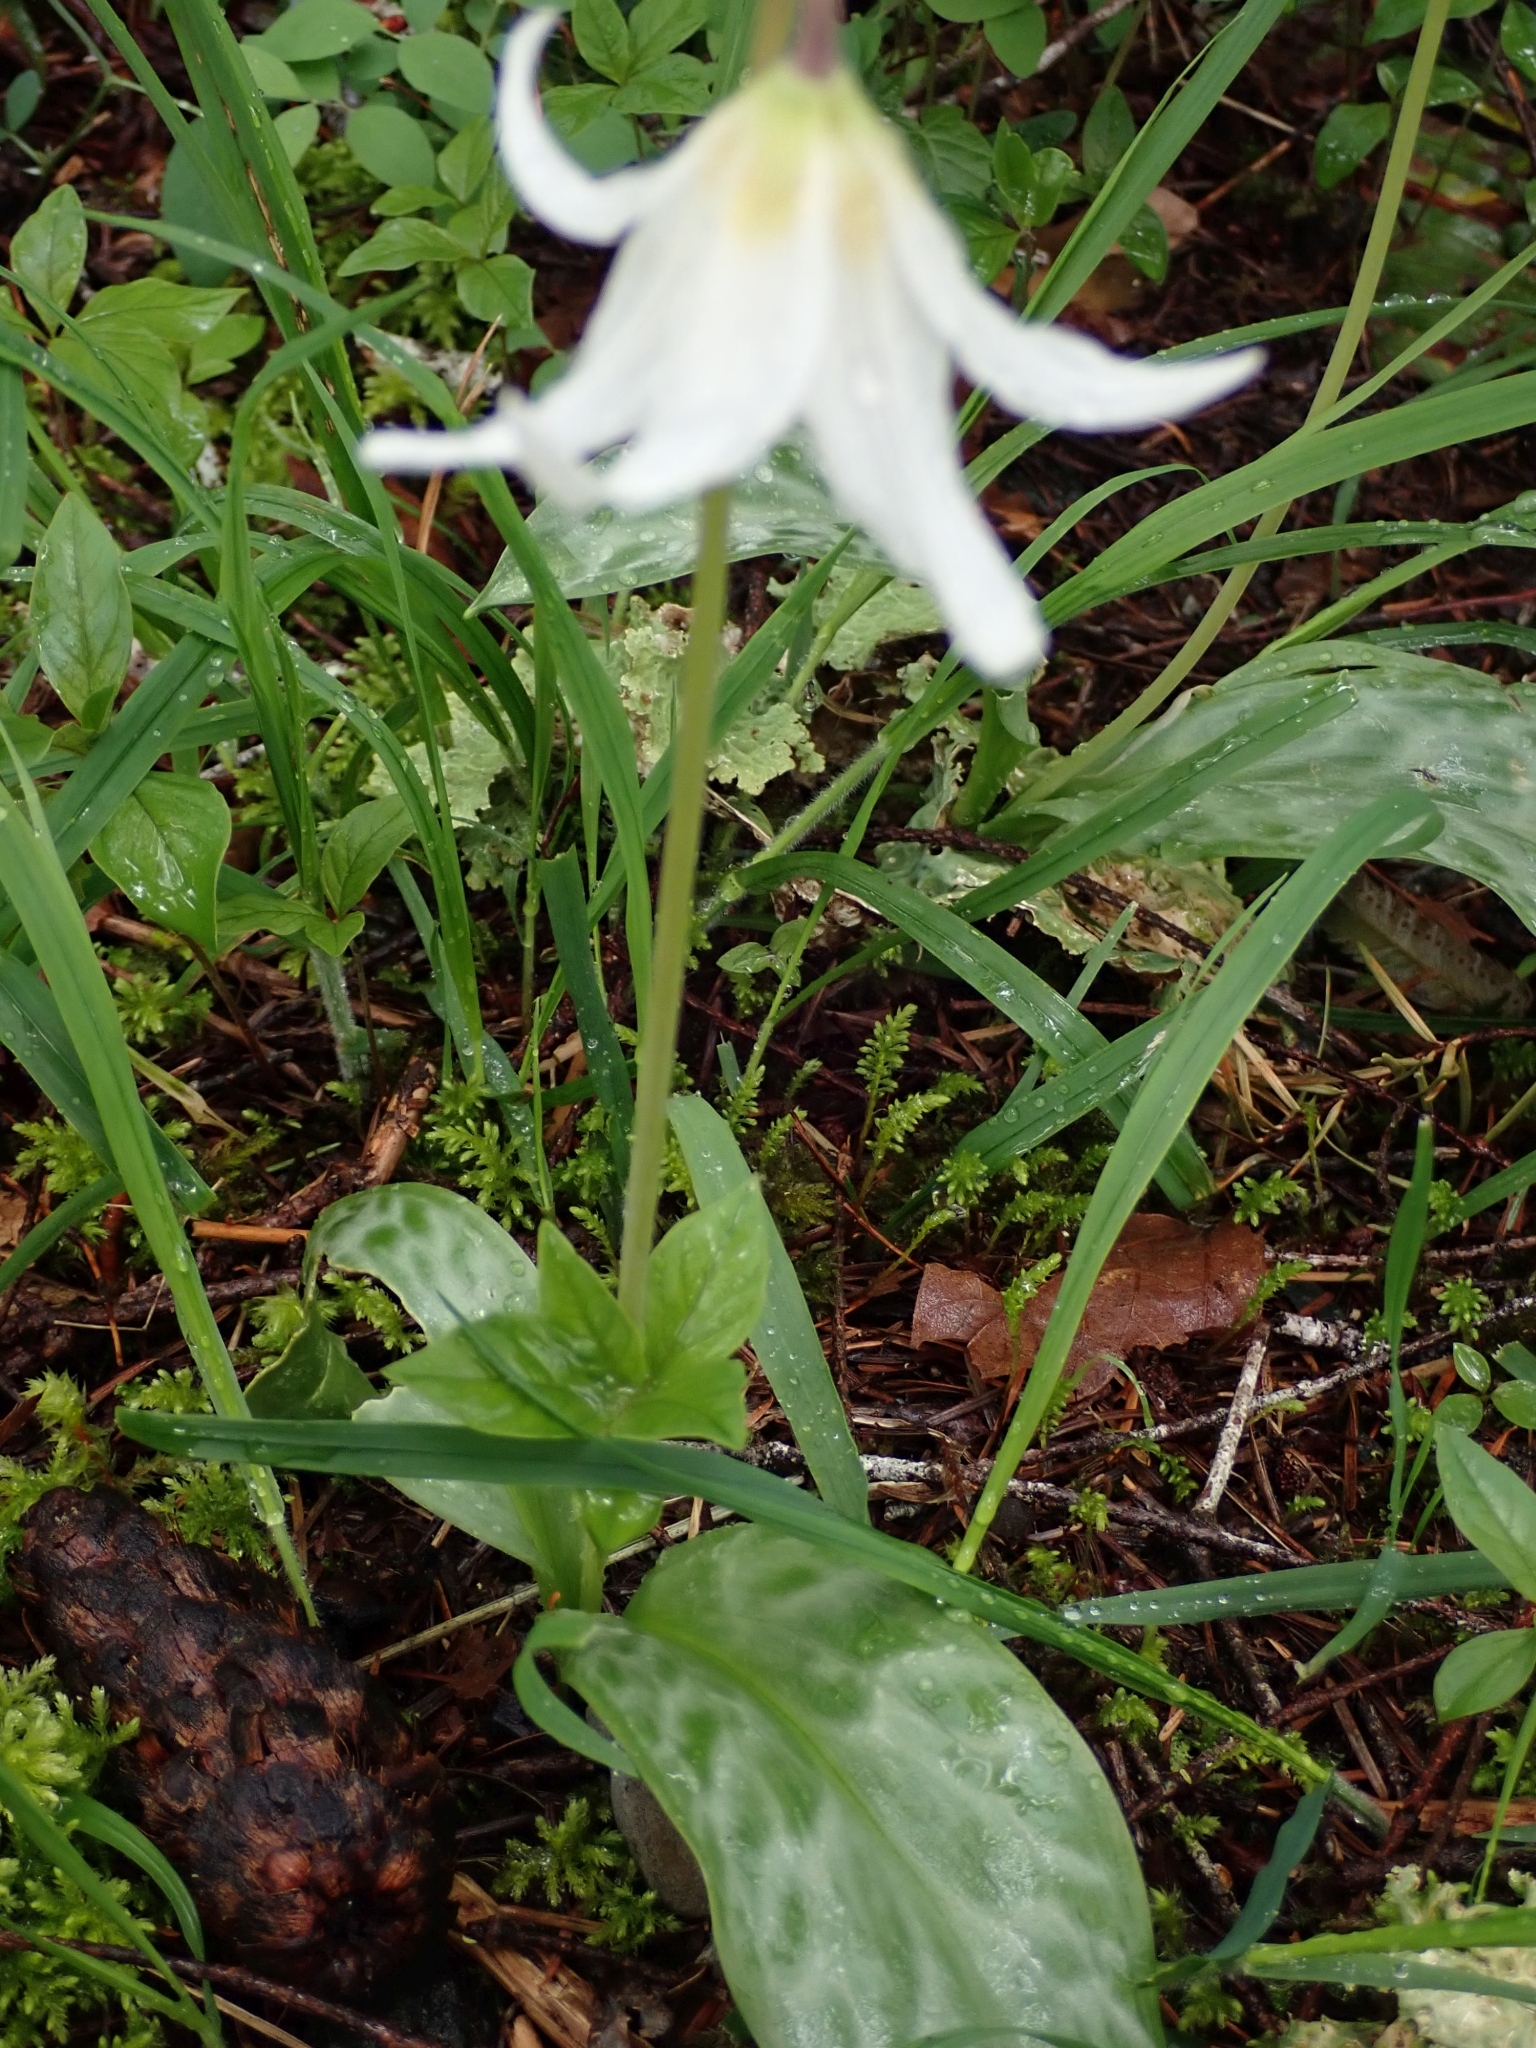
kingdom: Plantae
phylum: Tracheophyta
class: Liliopsida
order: Liliales
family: Liliaceae
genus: Erythronium
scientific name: Erythronium oregonum
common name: Giant adder's-tongue
